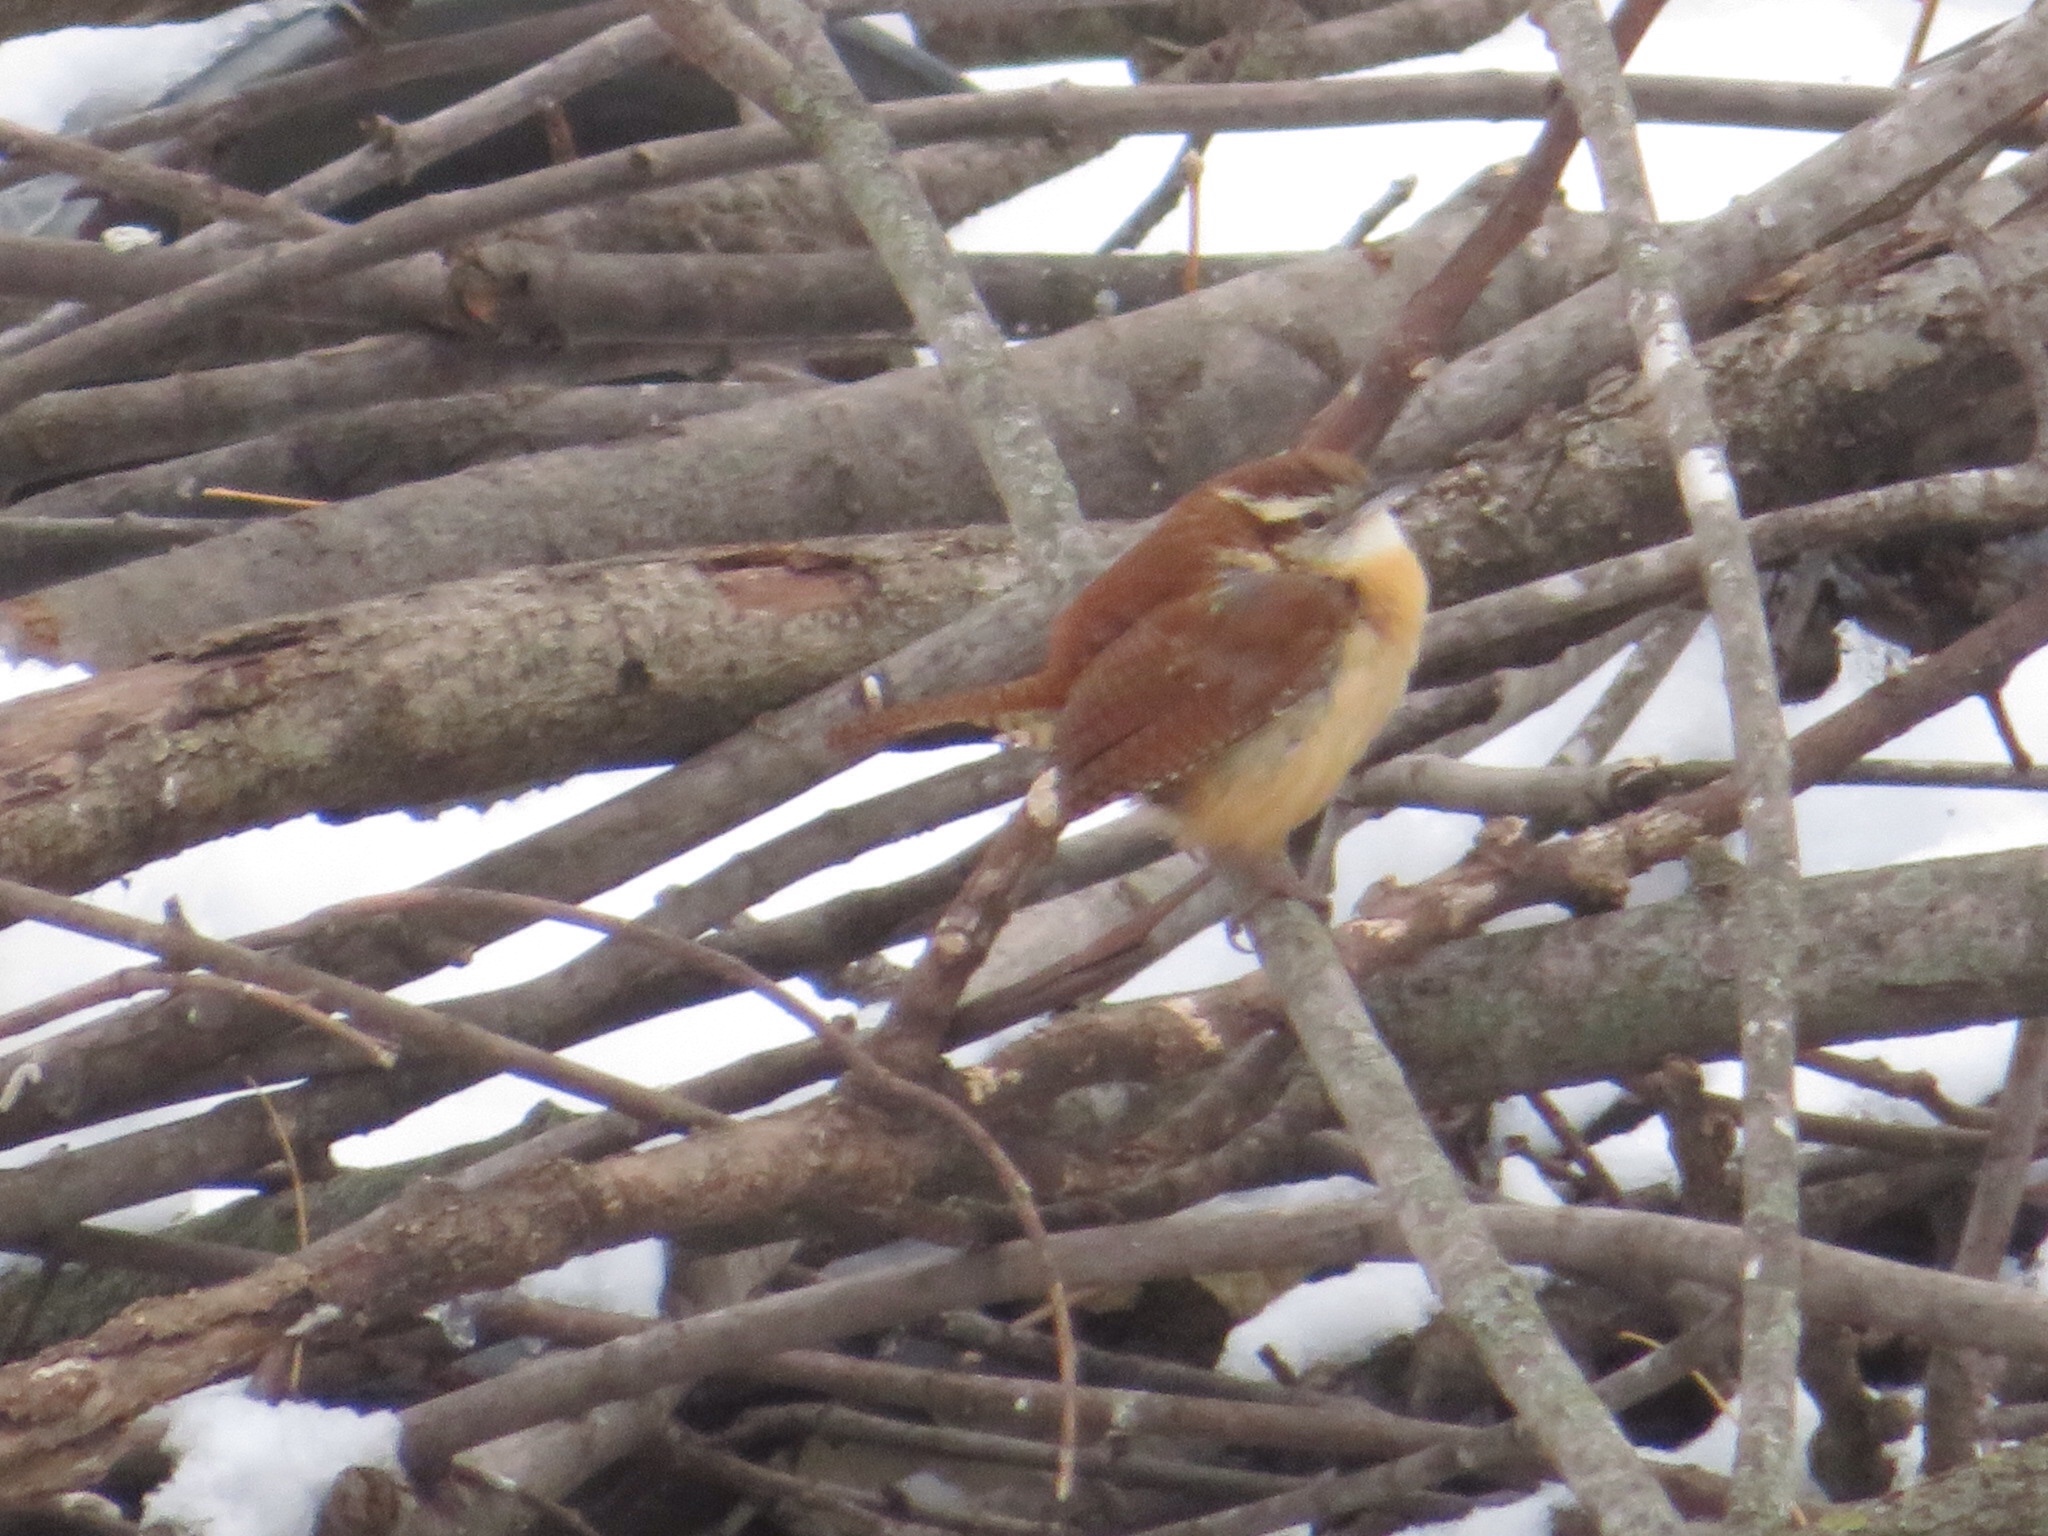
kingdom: Animalia
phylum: Chordata
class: Aves
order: Passeriformes
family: Troglodytidae
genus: Thryothorus
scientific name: Thryothorus ludovicianus
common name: Carolina wren
